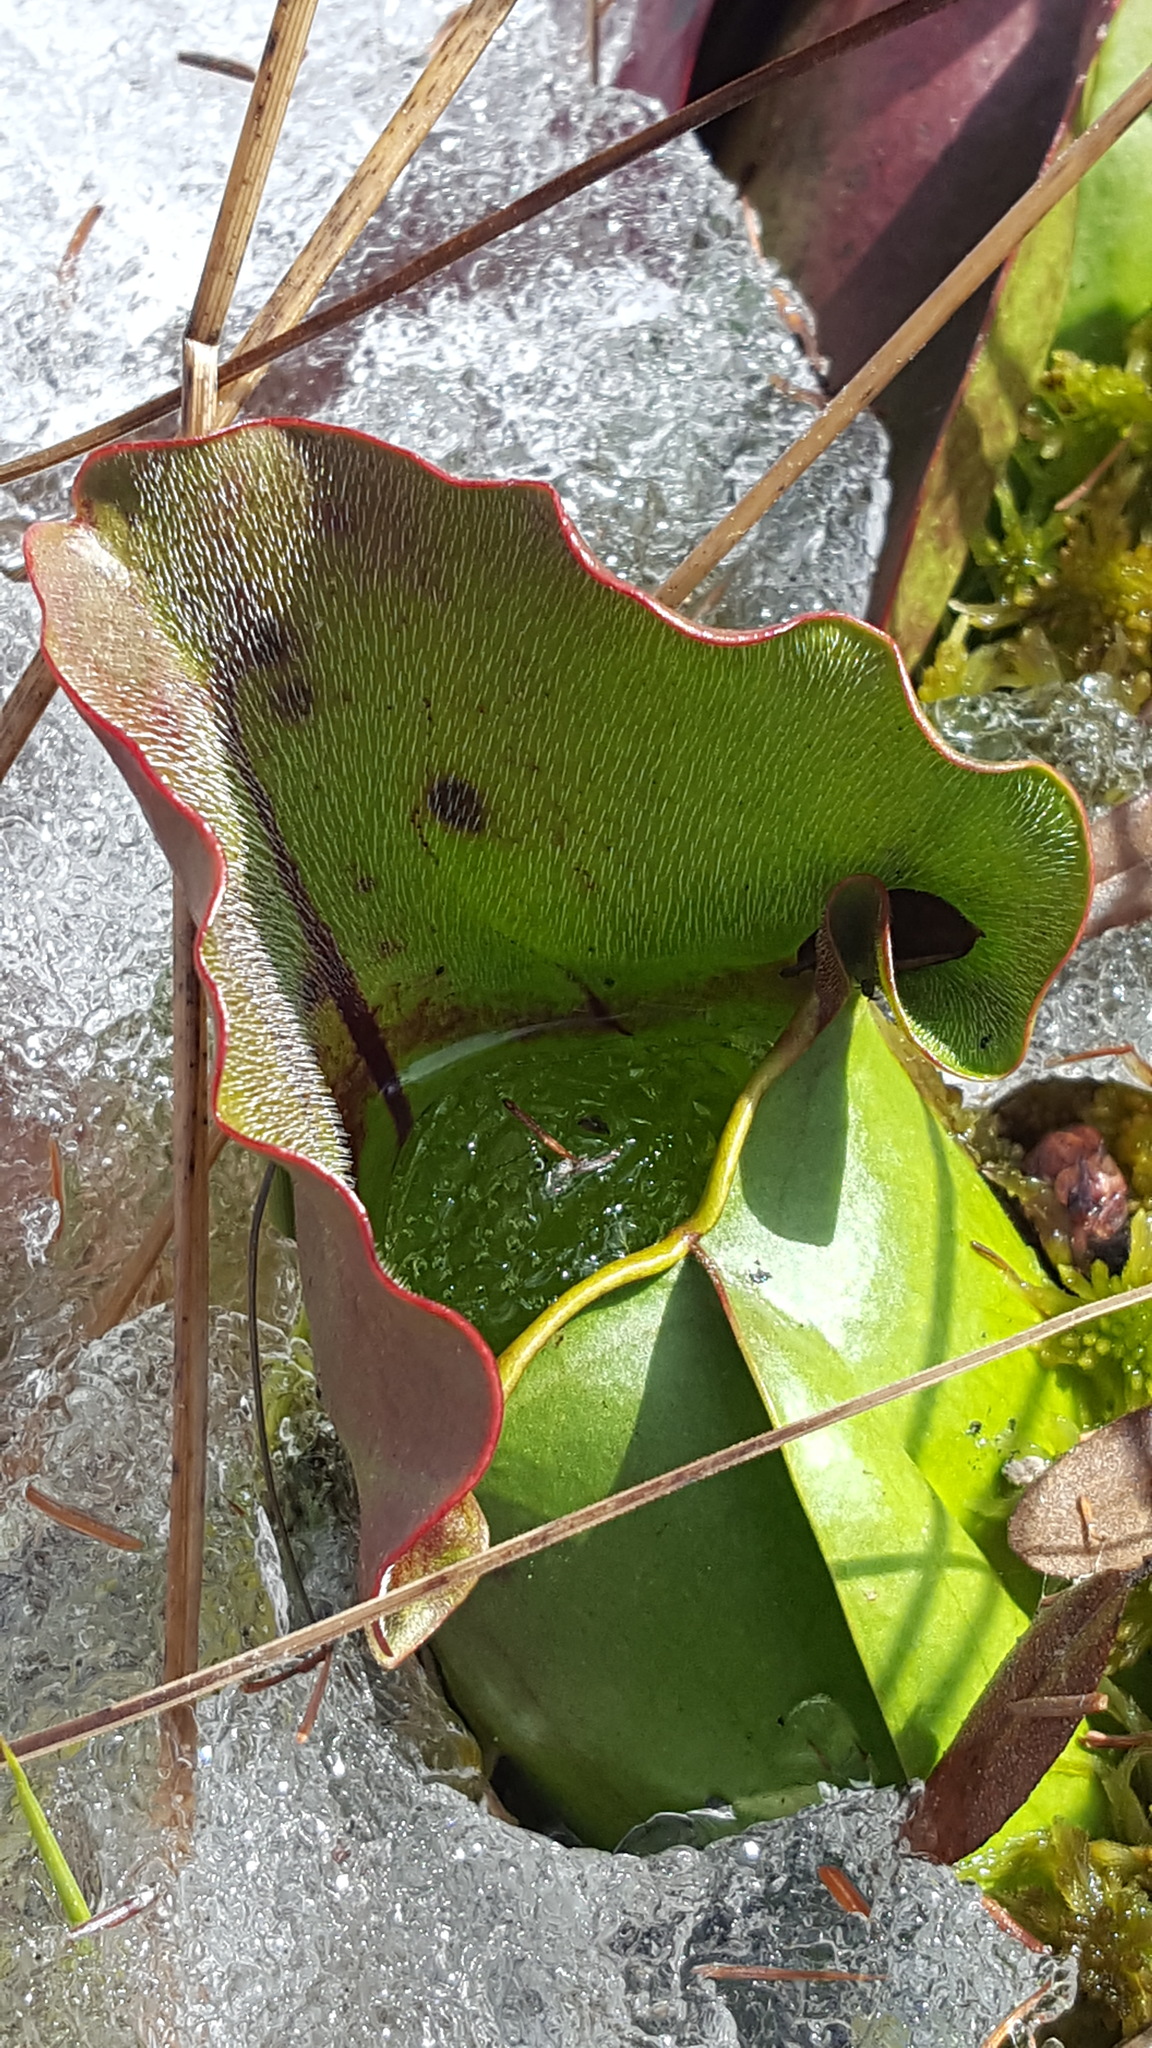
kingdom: Plantae
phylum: Tracheophyta
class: Magnoliopsida
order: Ericales
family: Sarraceniaceae
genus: Sarracenia
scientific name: Sarracenia purpurea
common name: Pitcherplant
